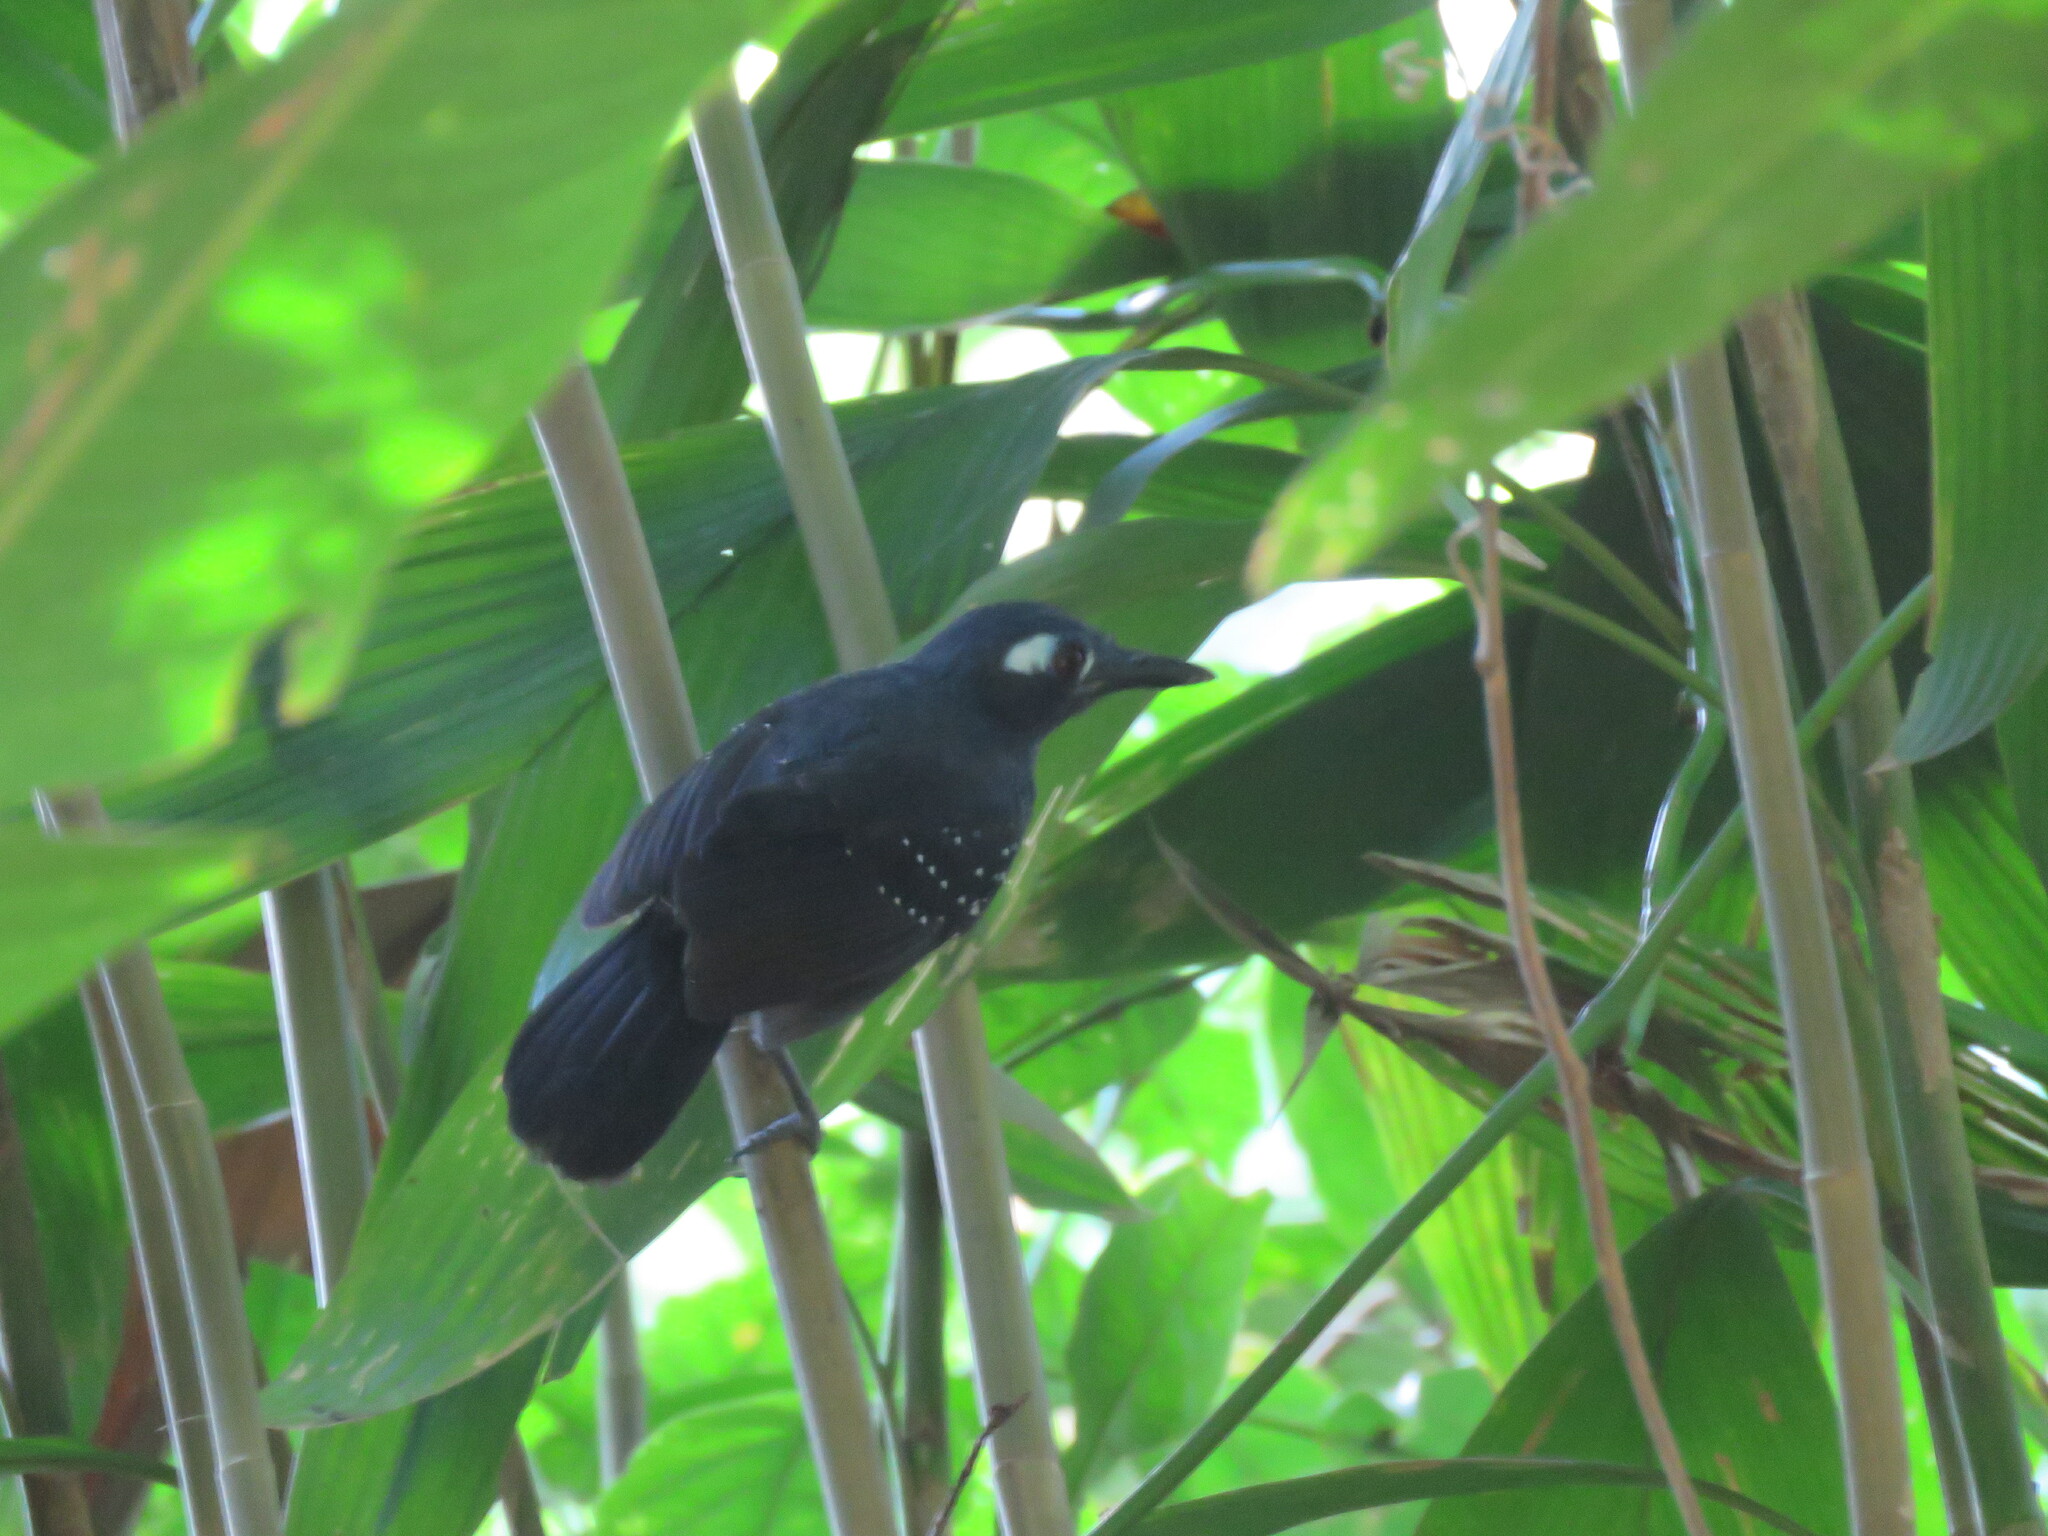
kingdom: Animalia
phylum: Chordata
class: Aves
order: Passeriformes
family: Thamnophilidae
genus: Myrmeciza
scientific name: Myrmeciza hyperythra
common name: Plumbeous antbird
